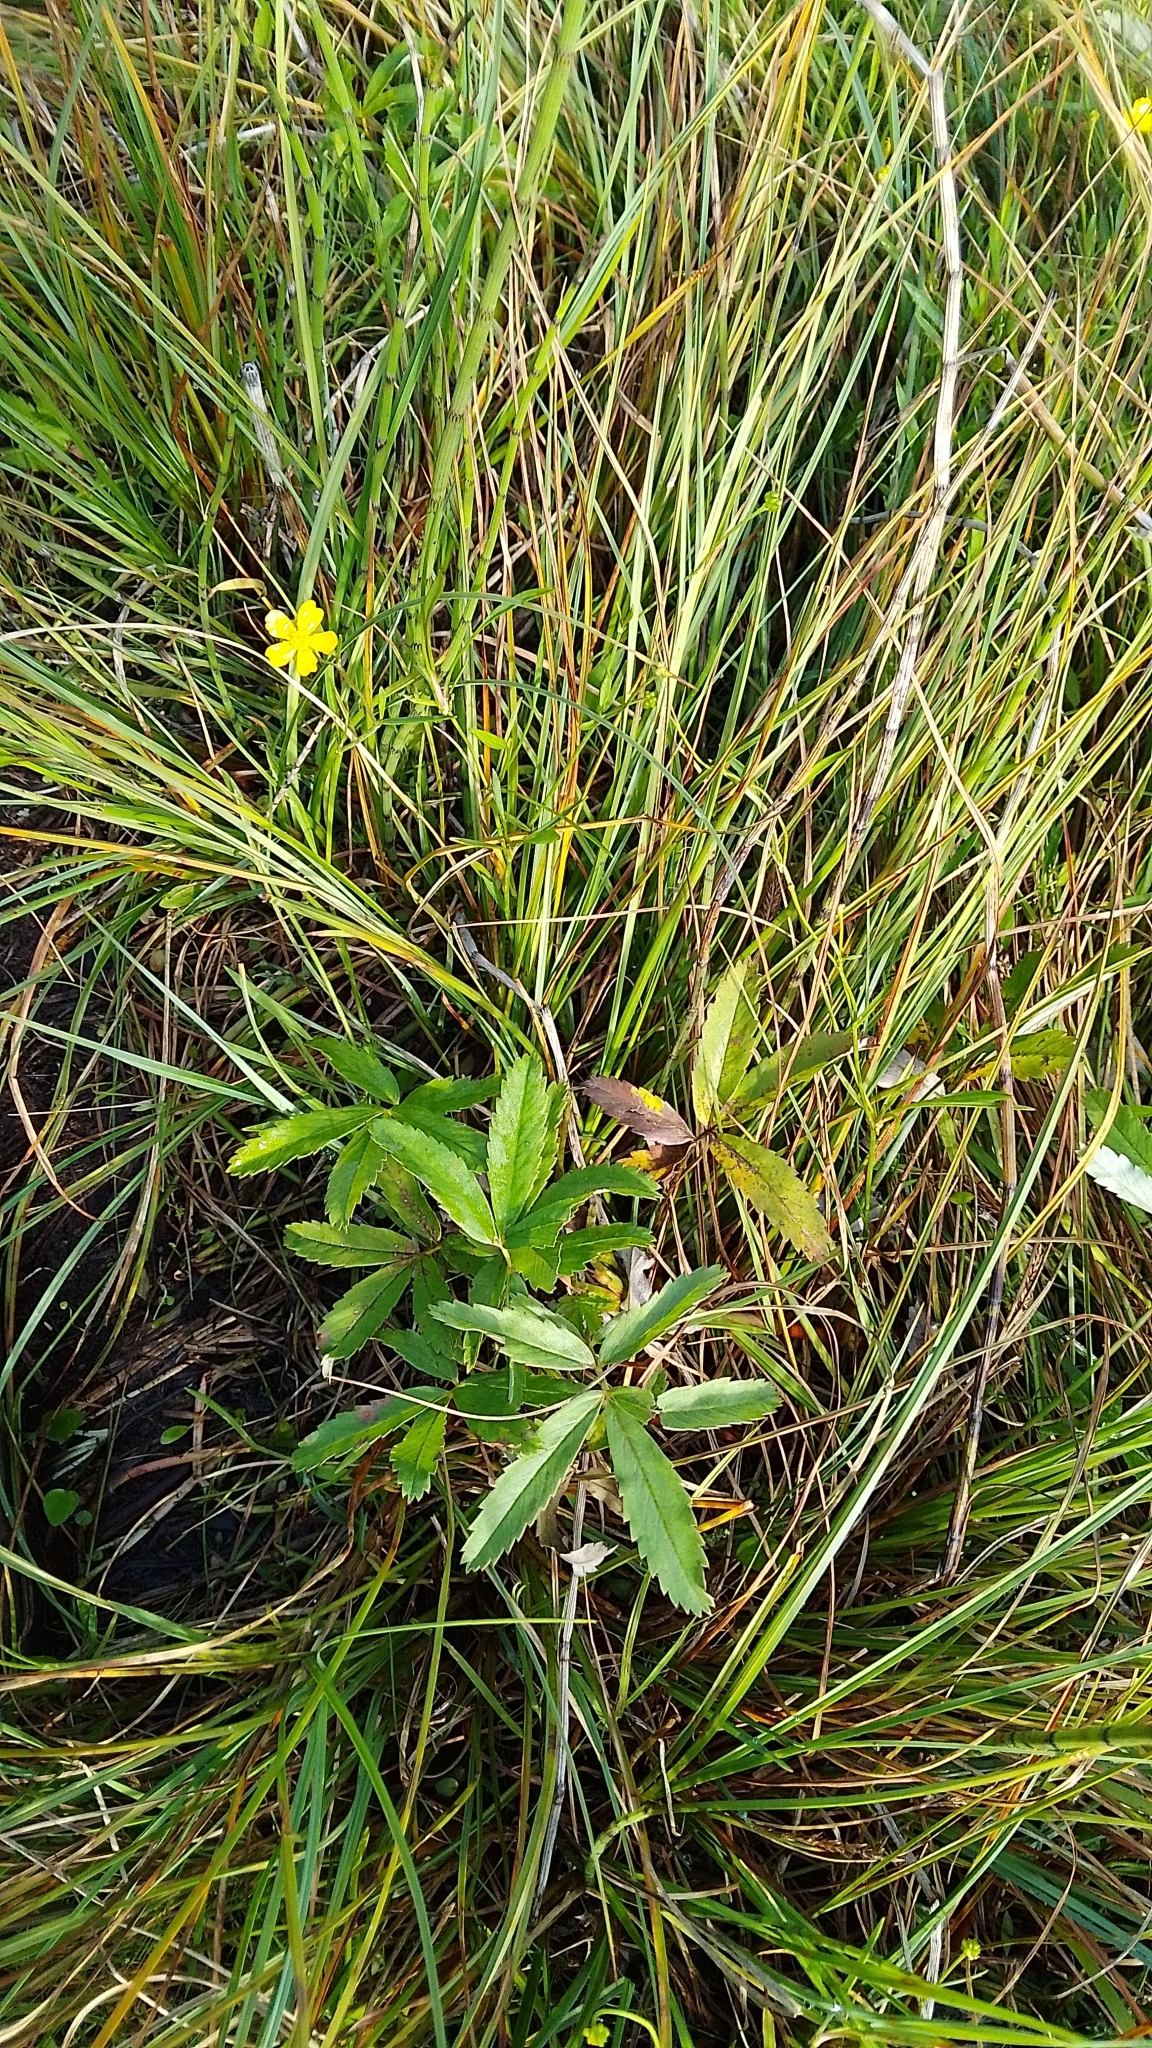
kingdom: Plantae
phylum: Tracheophyta
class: Magnoliopsida
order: Rosales
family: Rosaceae
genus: Comarum
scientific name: Comarum palustre
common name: Marsh cinquefoil
